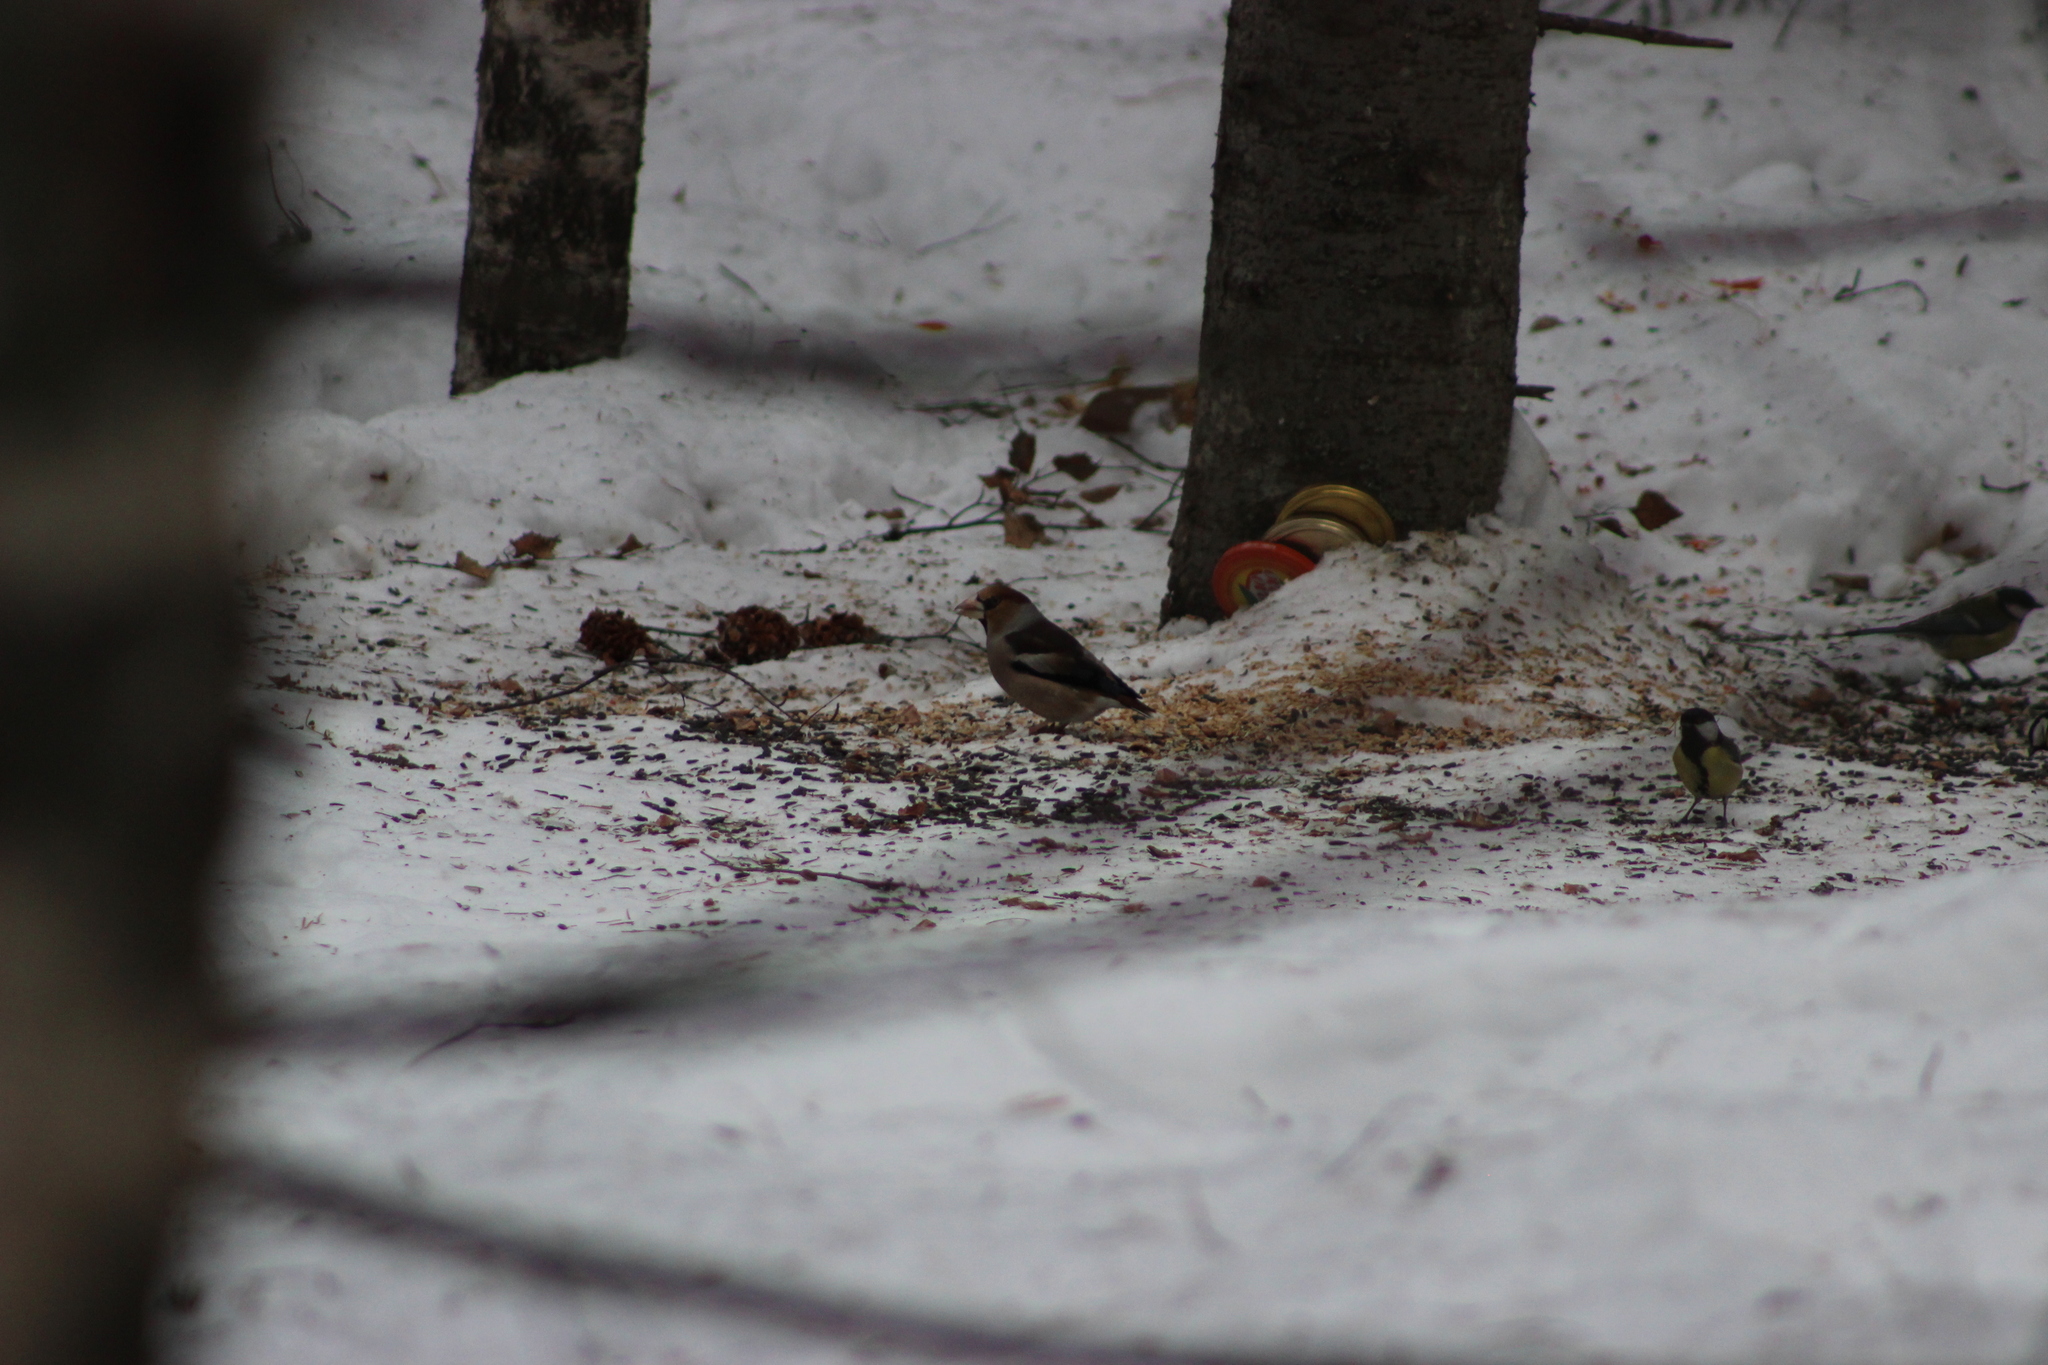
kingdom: Animalia
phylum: Chordata
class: Aves
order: Passeriformes
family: Fringillidae
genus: Coccothraustes
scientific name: Coccothraustes coccothraustes
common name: Hawfinch
